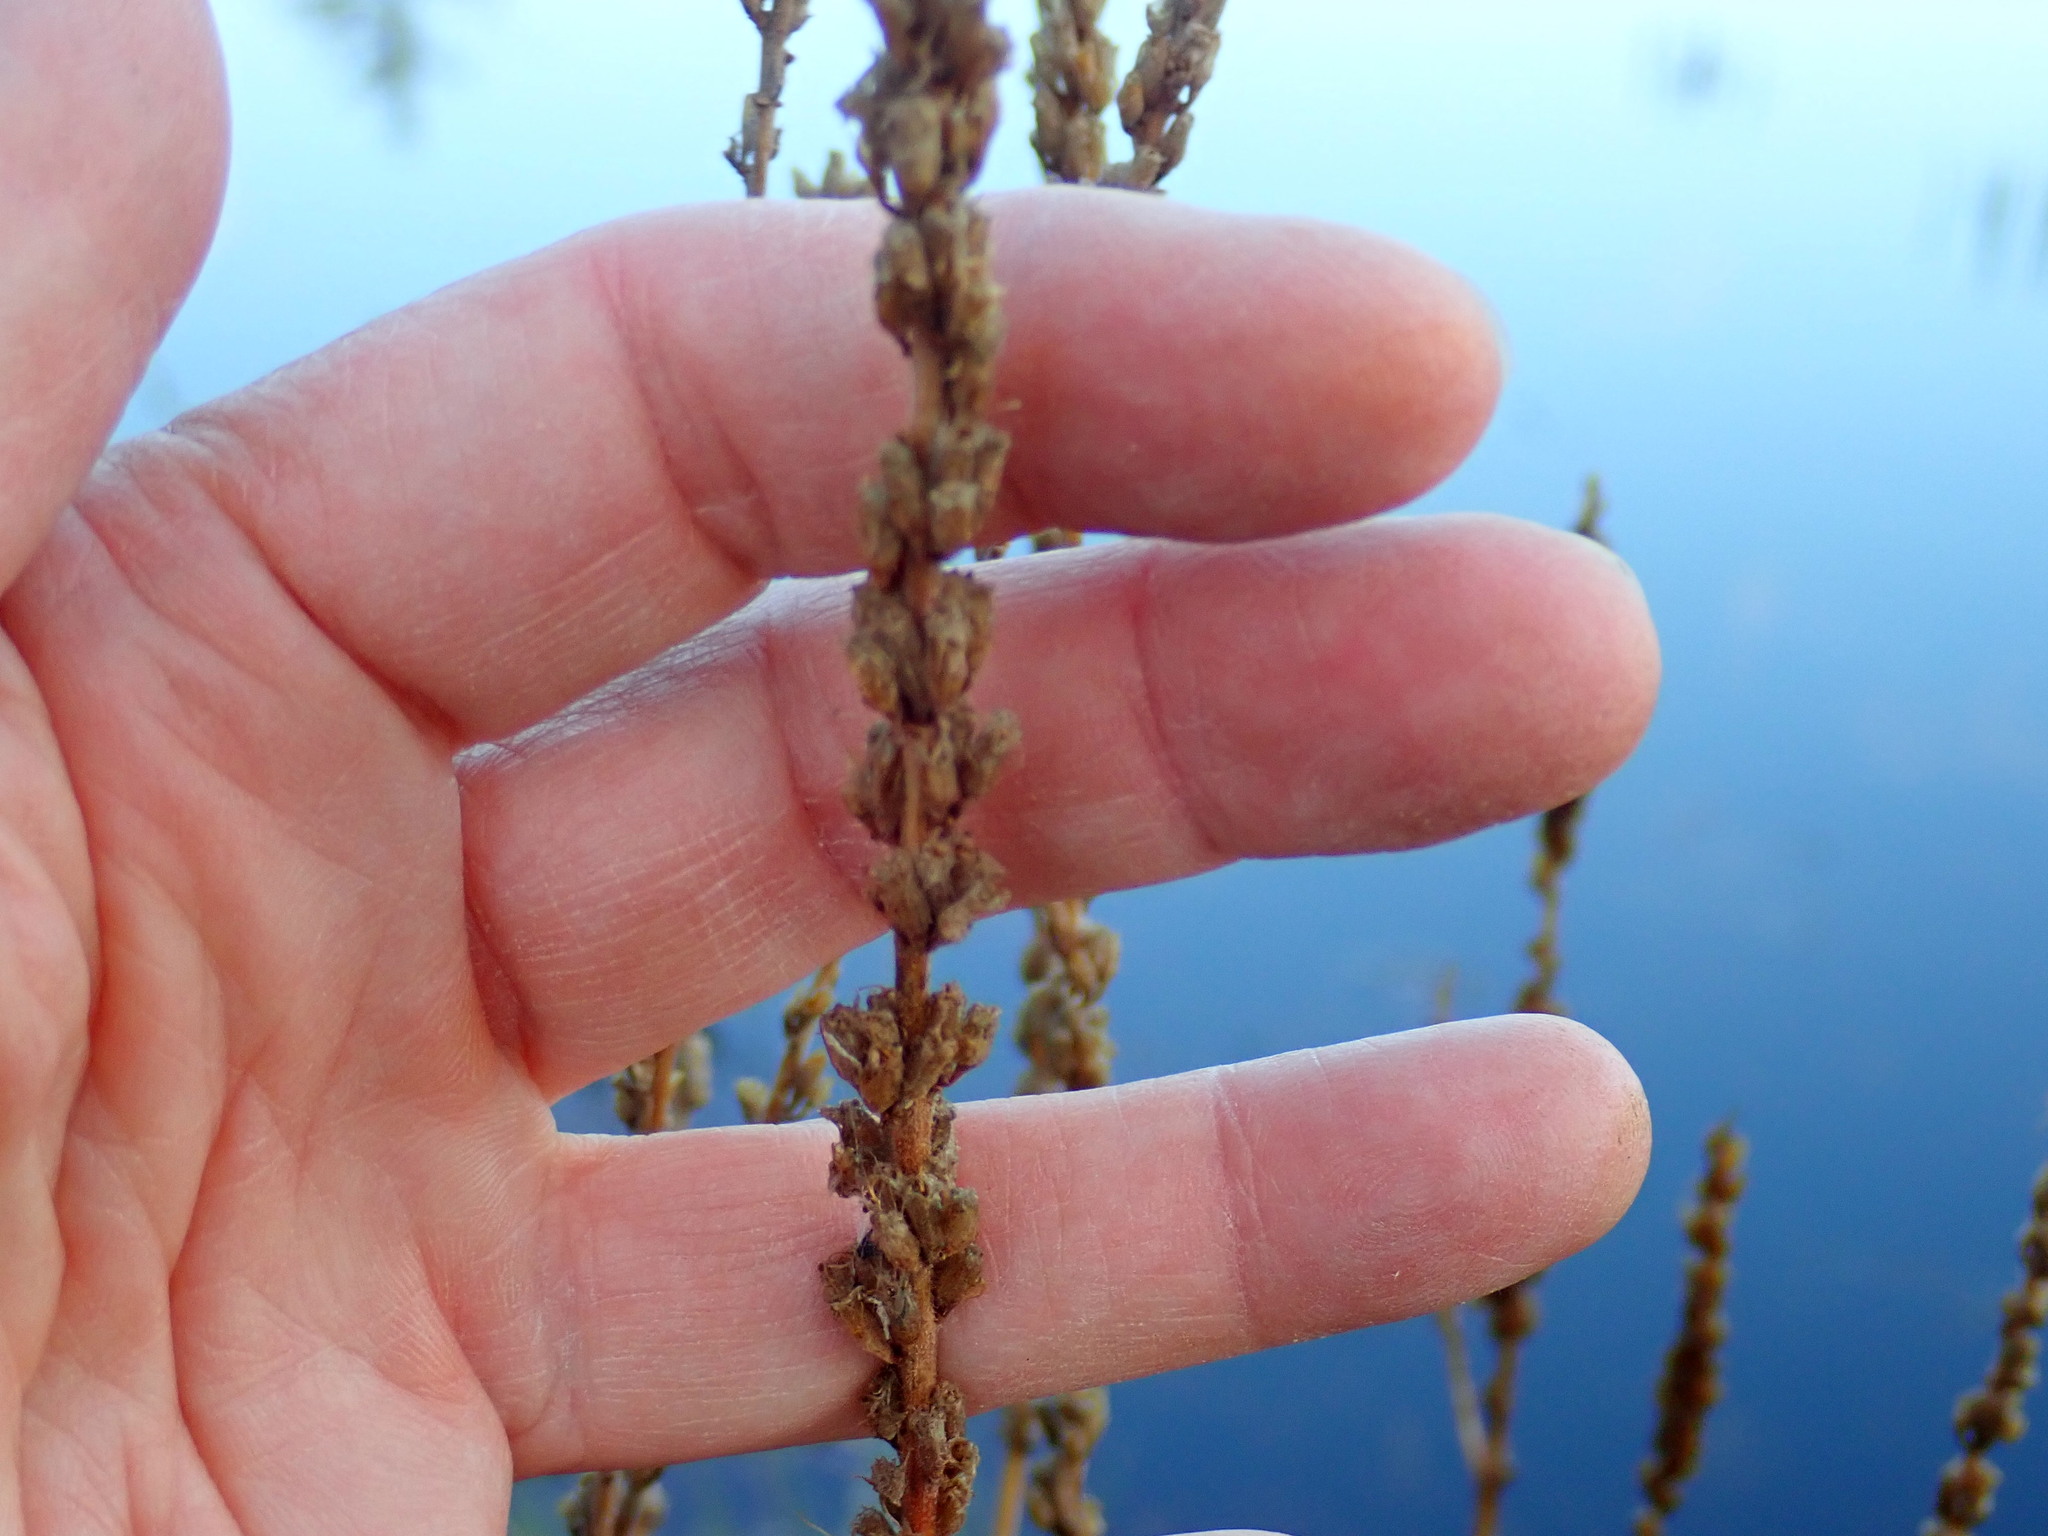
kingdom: Plantae
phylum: Tracheophyta
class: Magnoliopsida
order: Myrtales
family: Lythraceae
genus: Lythrum
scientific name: Lythrum salicaria
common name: Purple loosestrife
